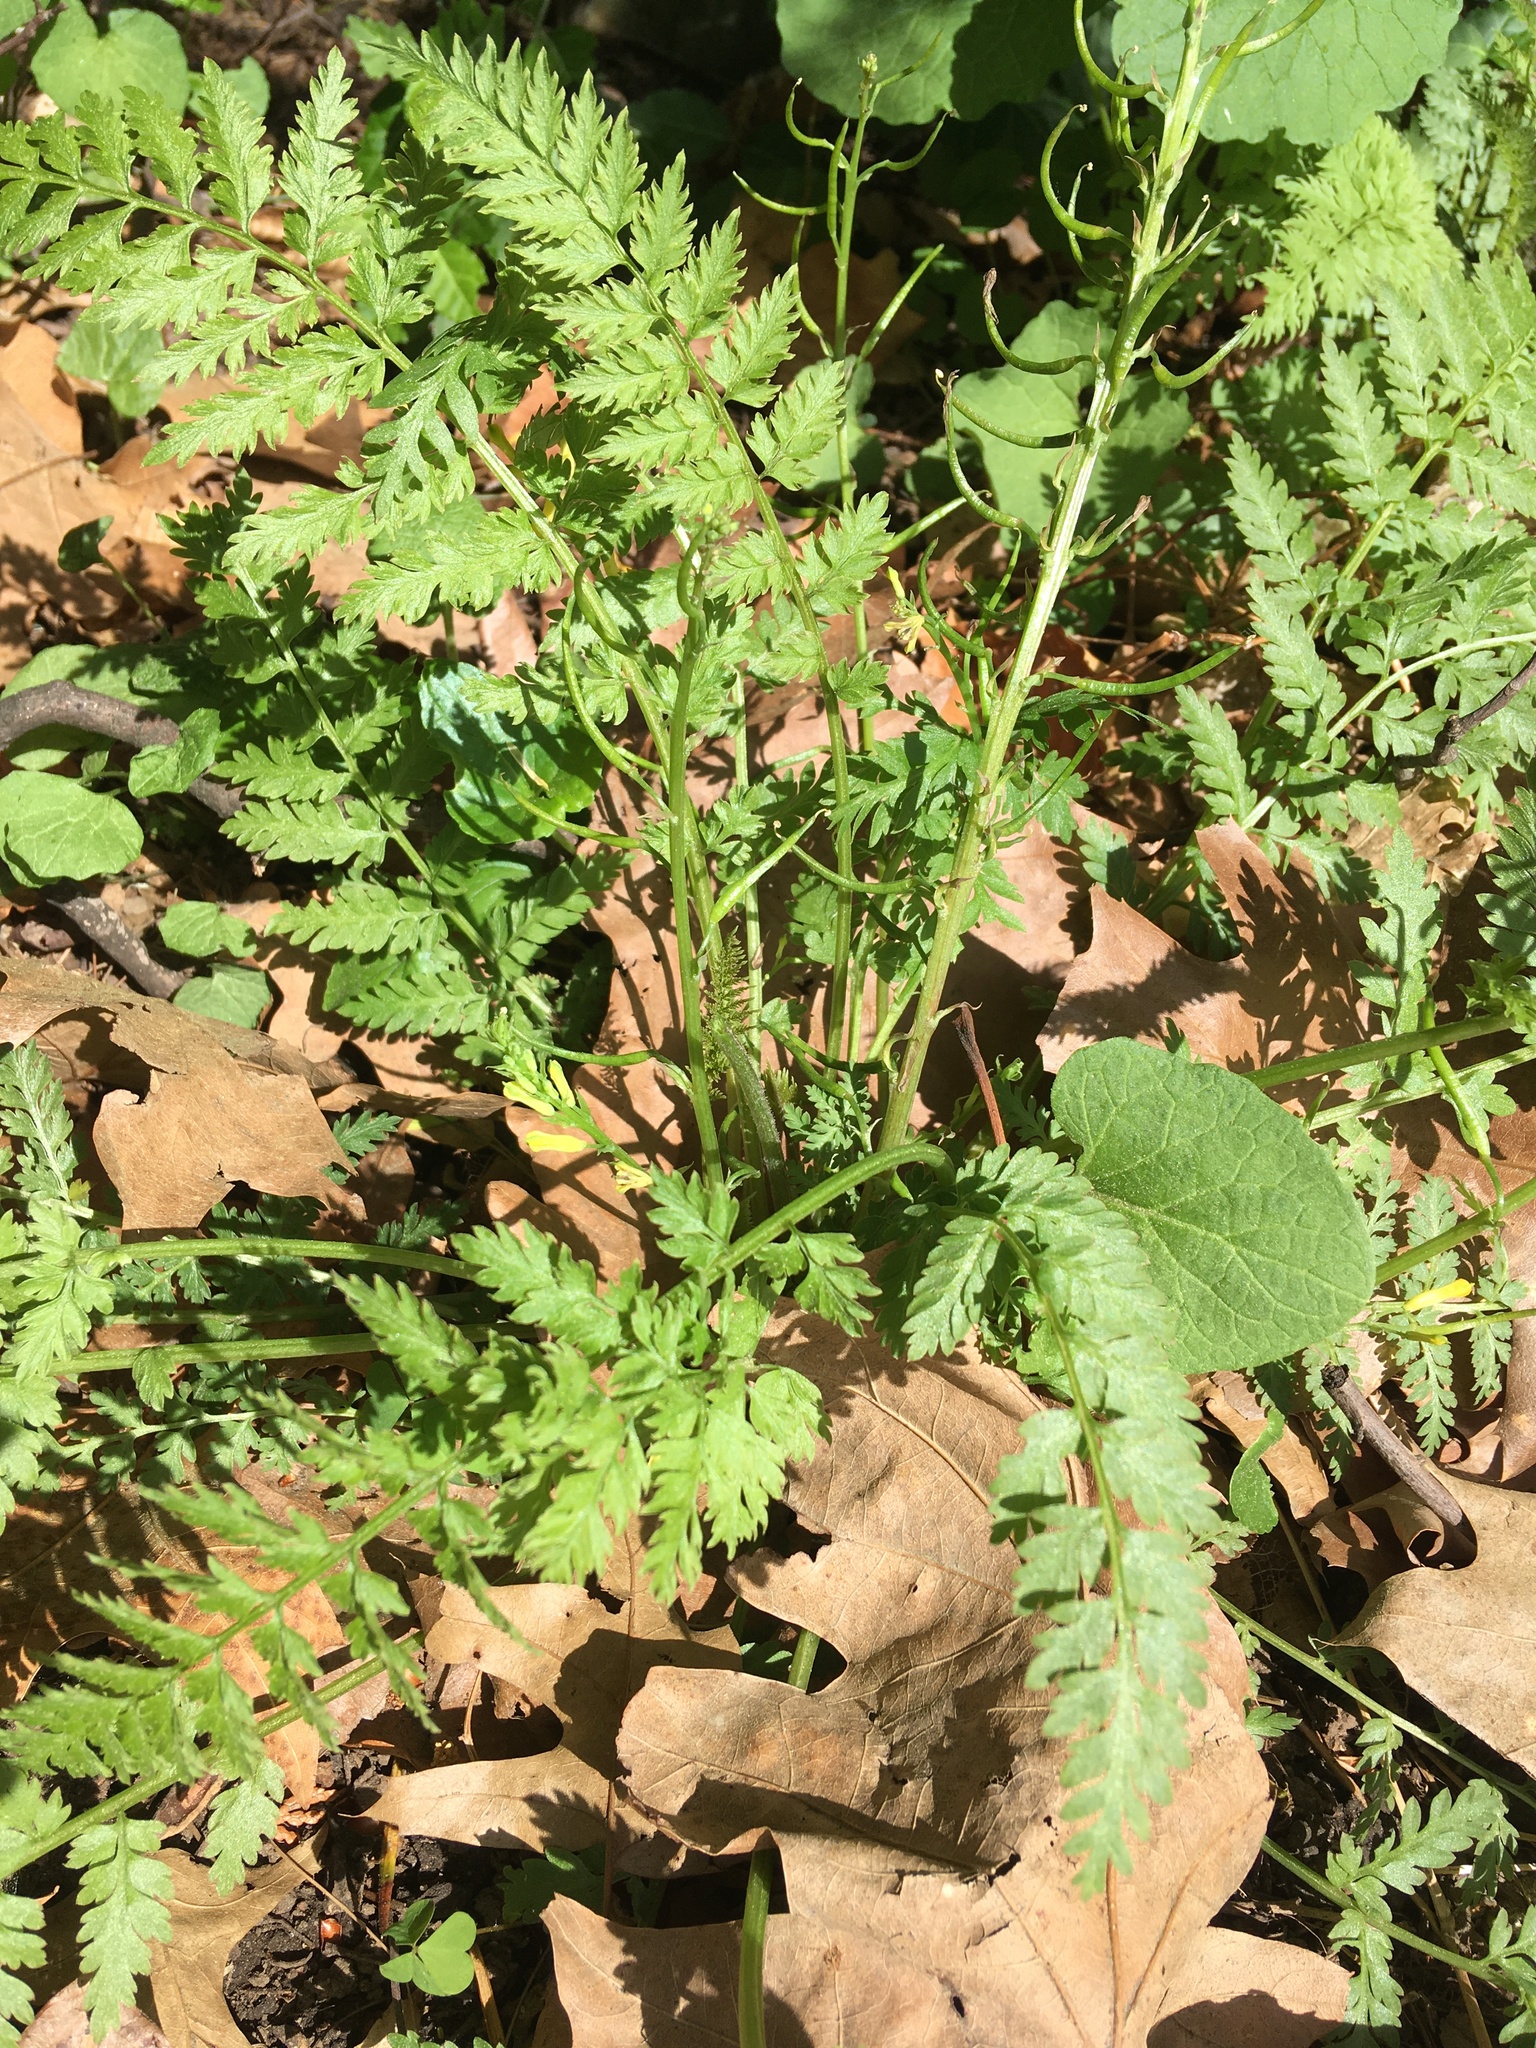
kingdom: Plantae
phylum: Tracheophyta
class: Magnoliopsida
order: Ranunculales
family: Papaveraceae
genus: Corydalis
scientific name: Corydalis cheilanthifolia
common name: Fern-leaved corydalis
